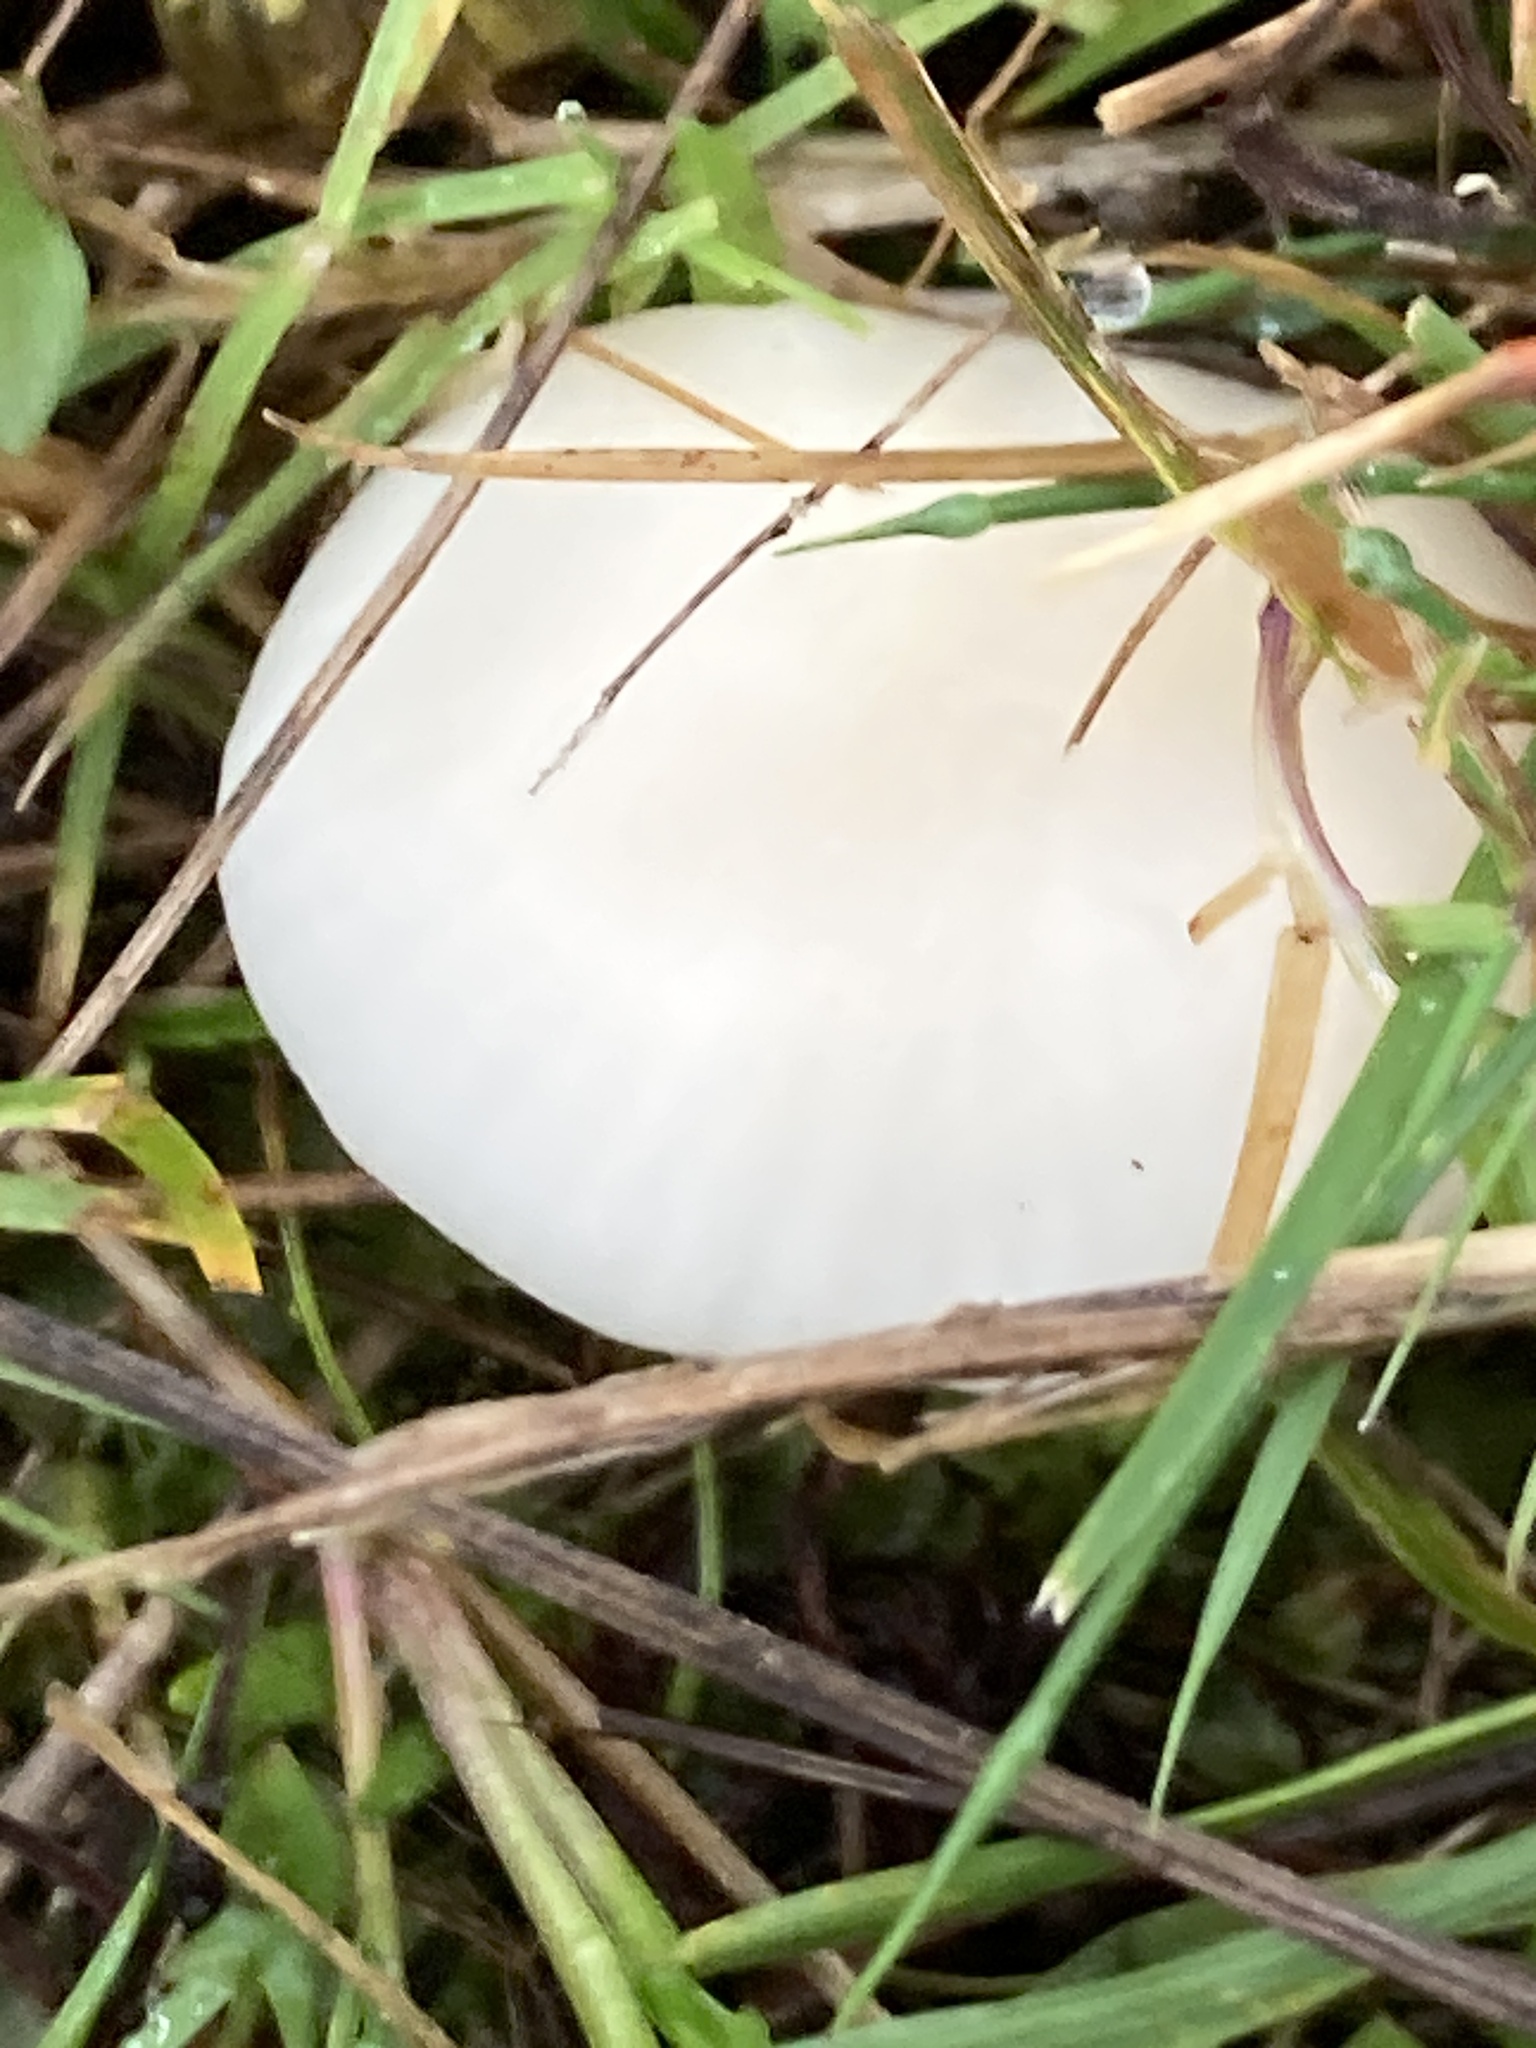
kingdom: Fungi
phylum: Basidiomycota
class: Agaricomycetes
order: Agaricales
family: Hygrophoraceae
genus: Cuphophyllus
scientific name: Cuphophyllus virgineus
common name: Snowy waxcap
